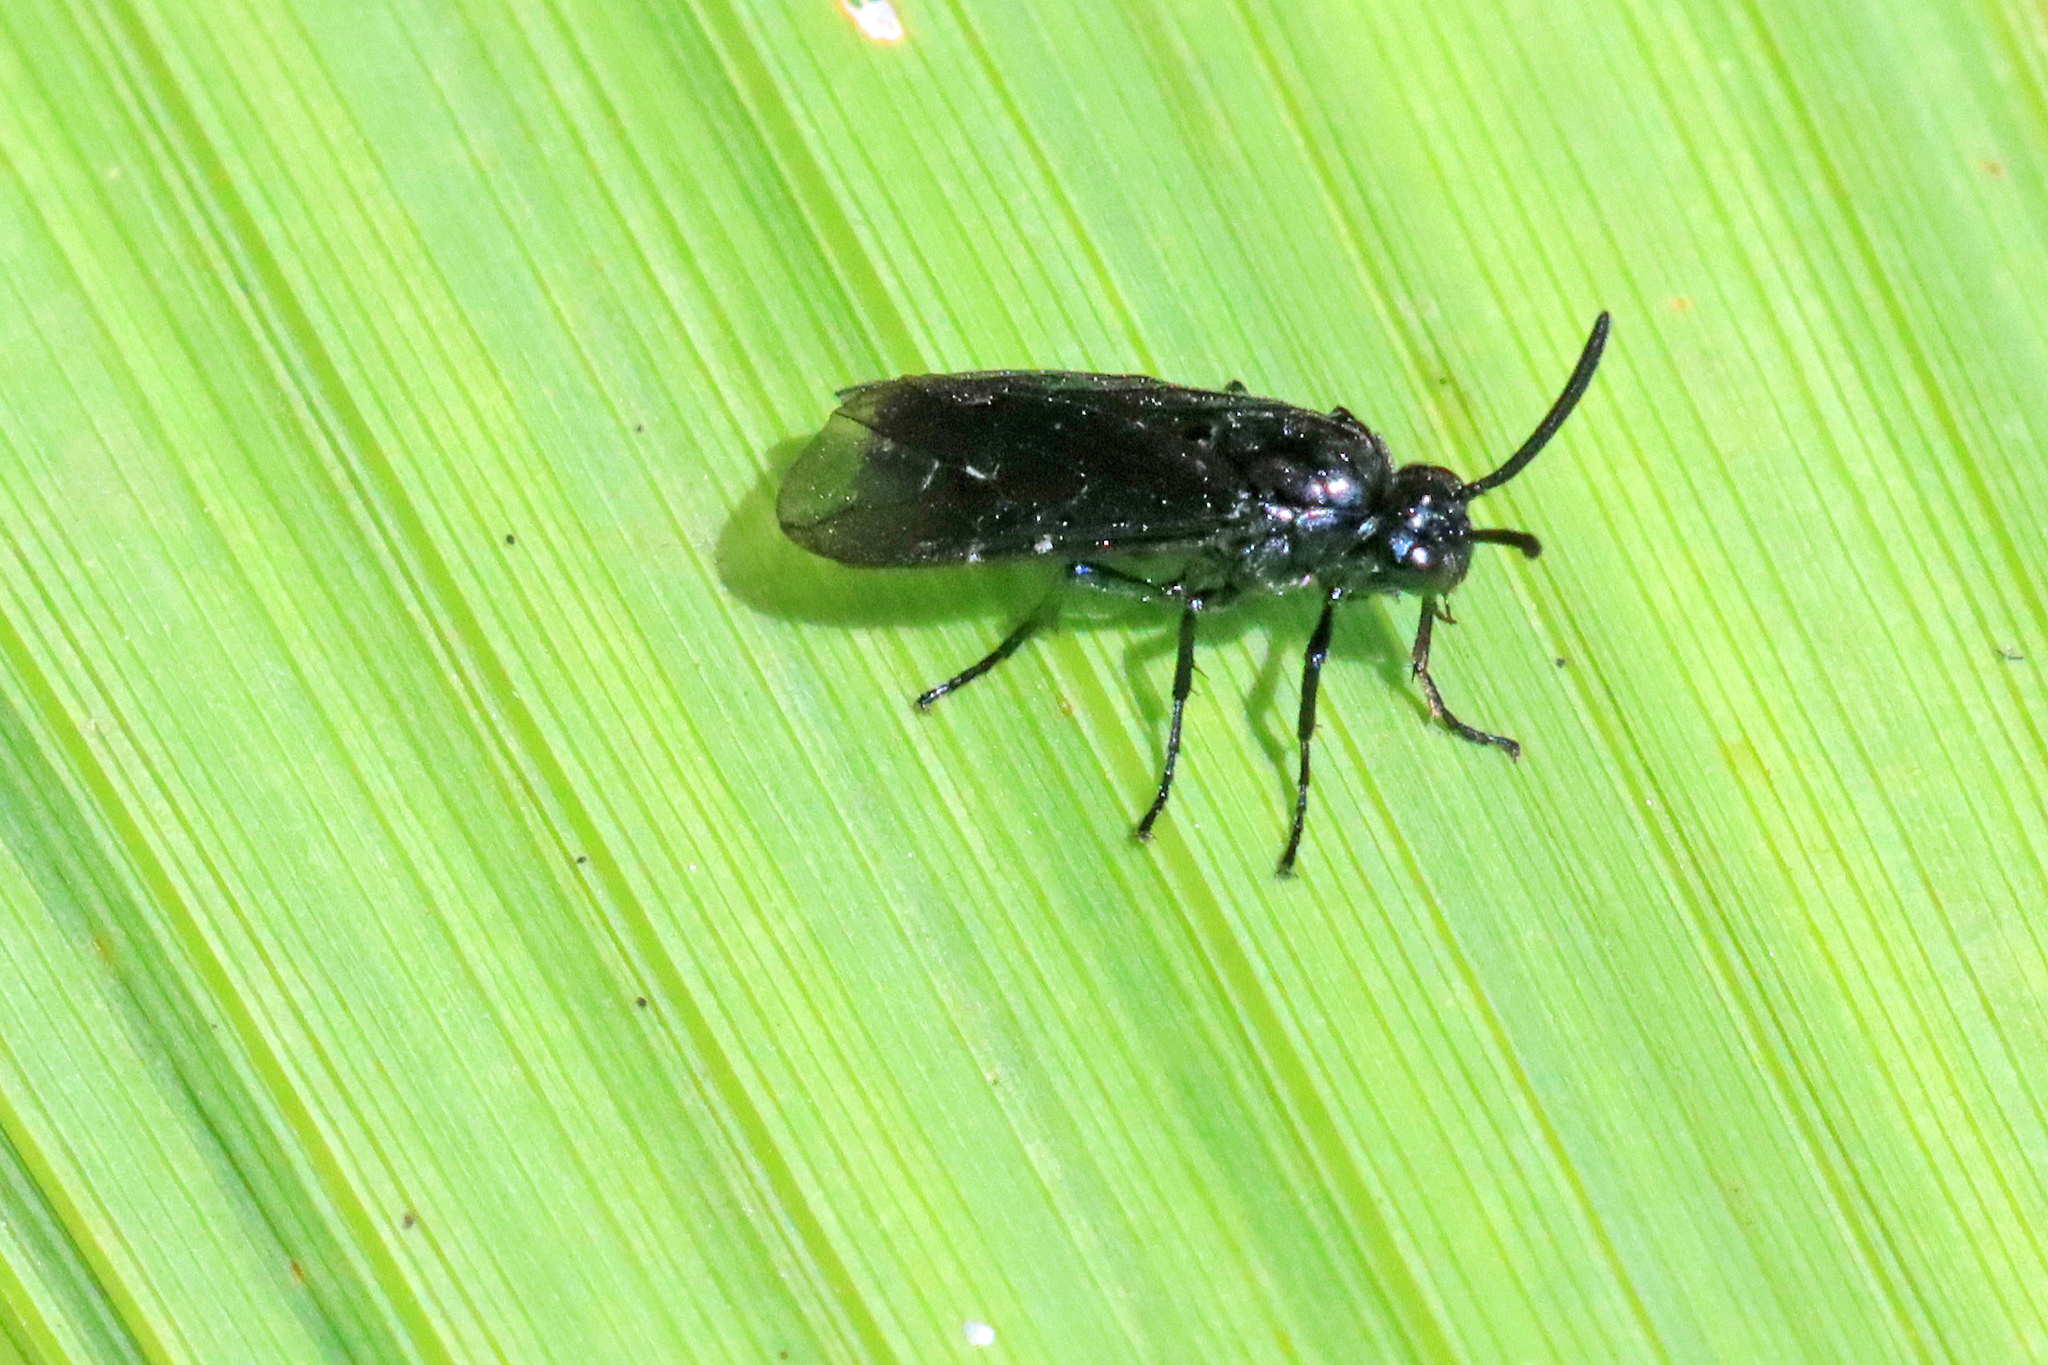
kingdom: Animalia
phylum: Arthropoda
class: Insecta
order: Hymenoptera
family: Argidae
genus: Arge
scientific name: Arge berberidis
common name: Berberis sawfly
